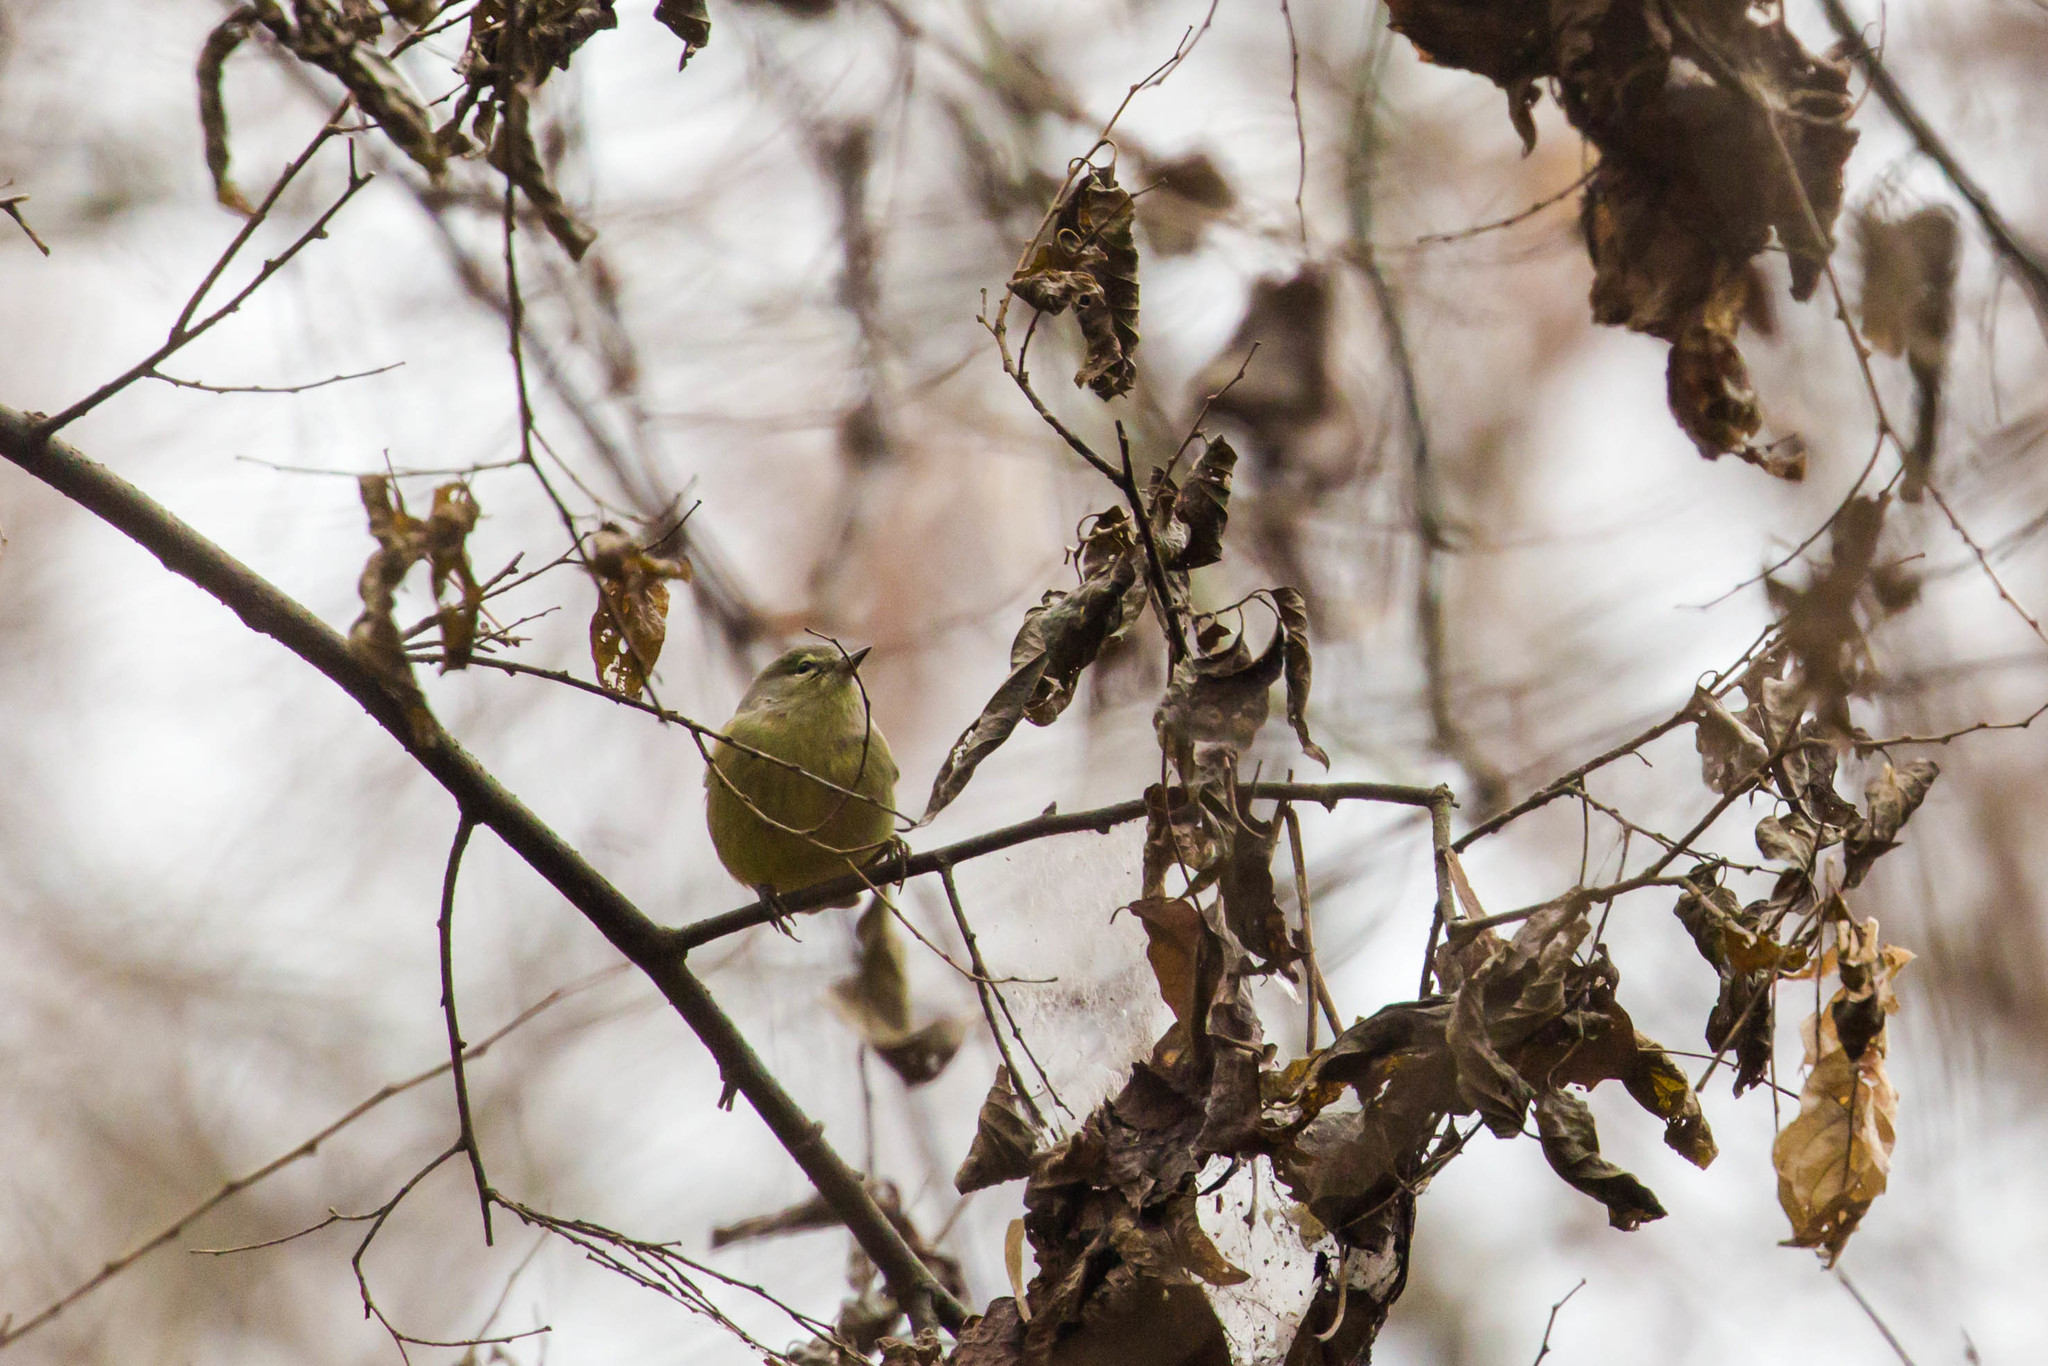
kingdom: Animalia
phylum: Chordata
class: Aves
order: Passeriformes
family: Parulidae
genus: Leiothlypis
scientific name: Leiothlypis celata
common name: Orange-crowned warbler
